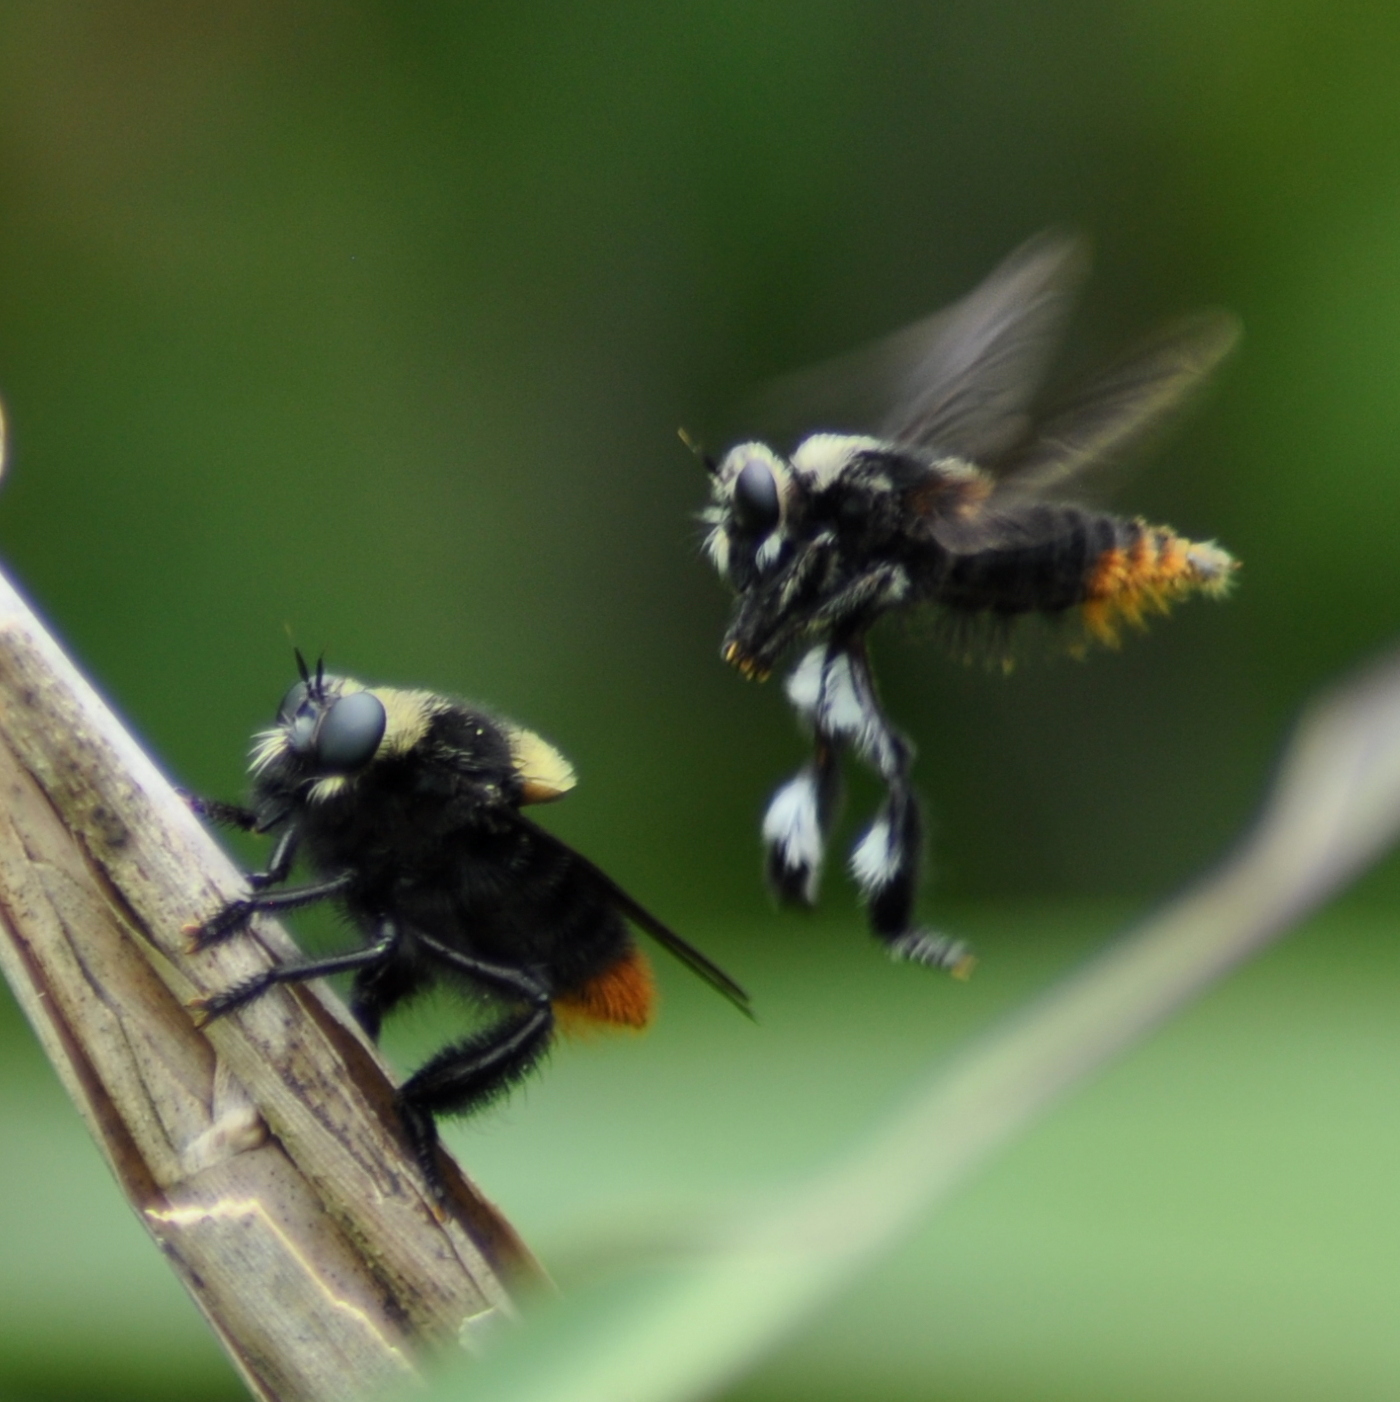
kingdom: Animalia
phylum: Arthropoda
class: Insecta
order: Diptera
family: Asilidae
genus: Mallophora
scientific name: Mallophora ruficauda
